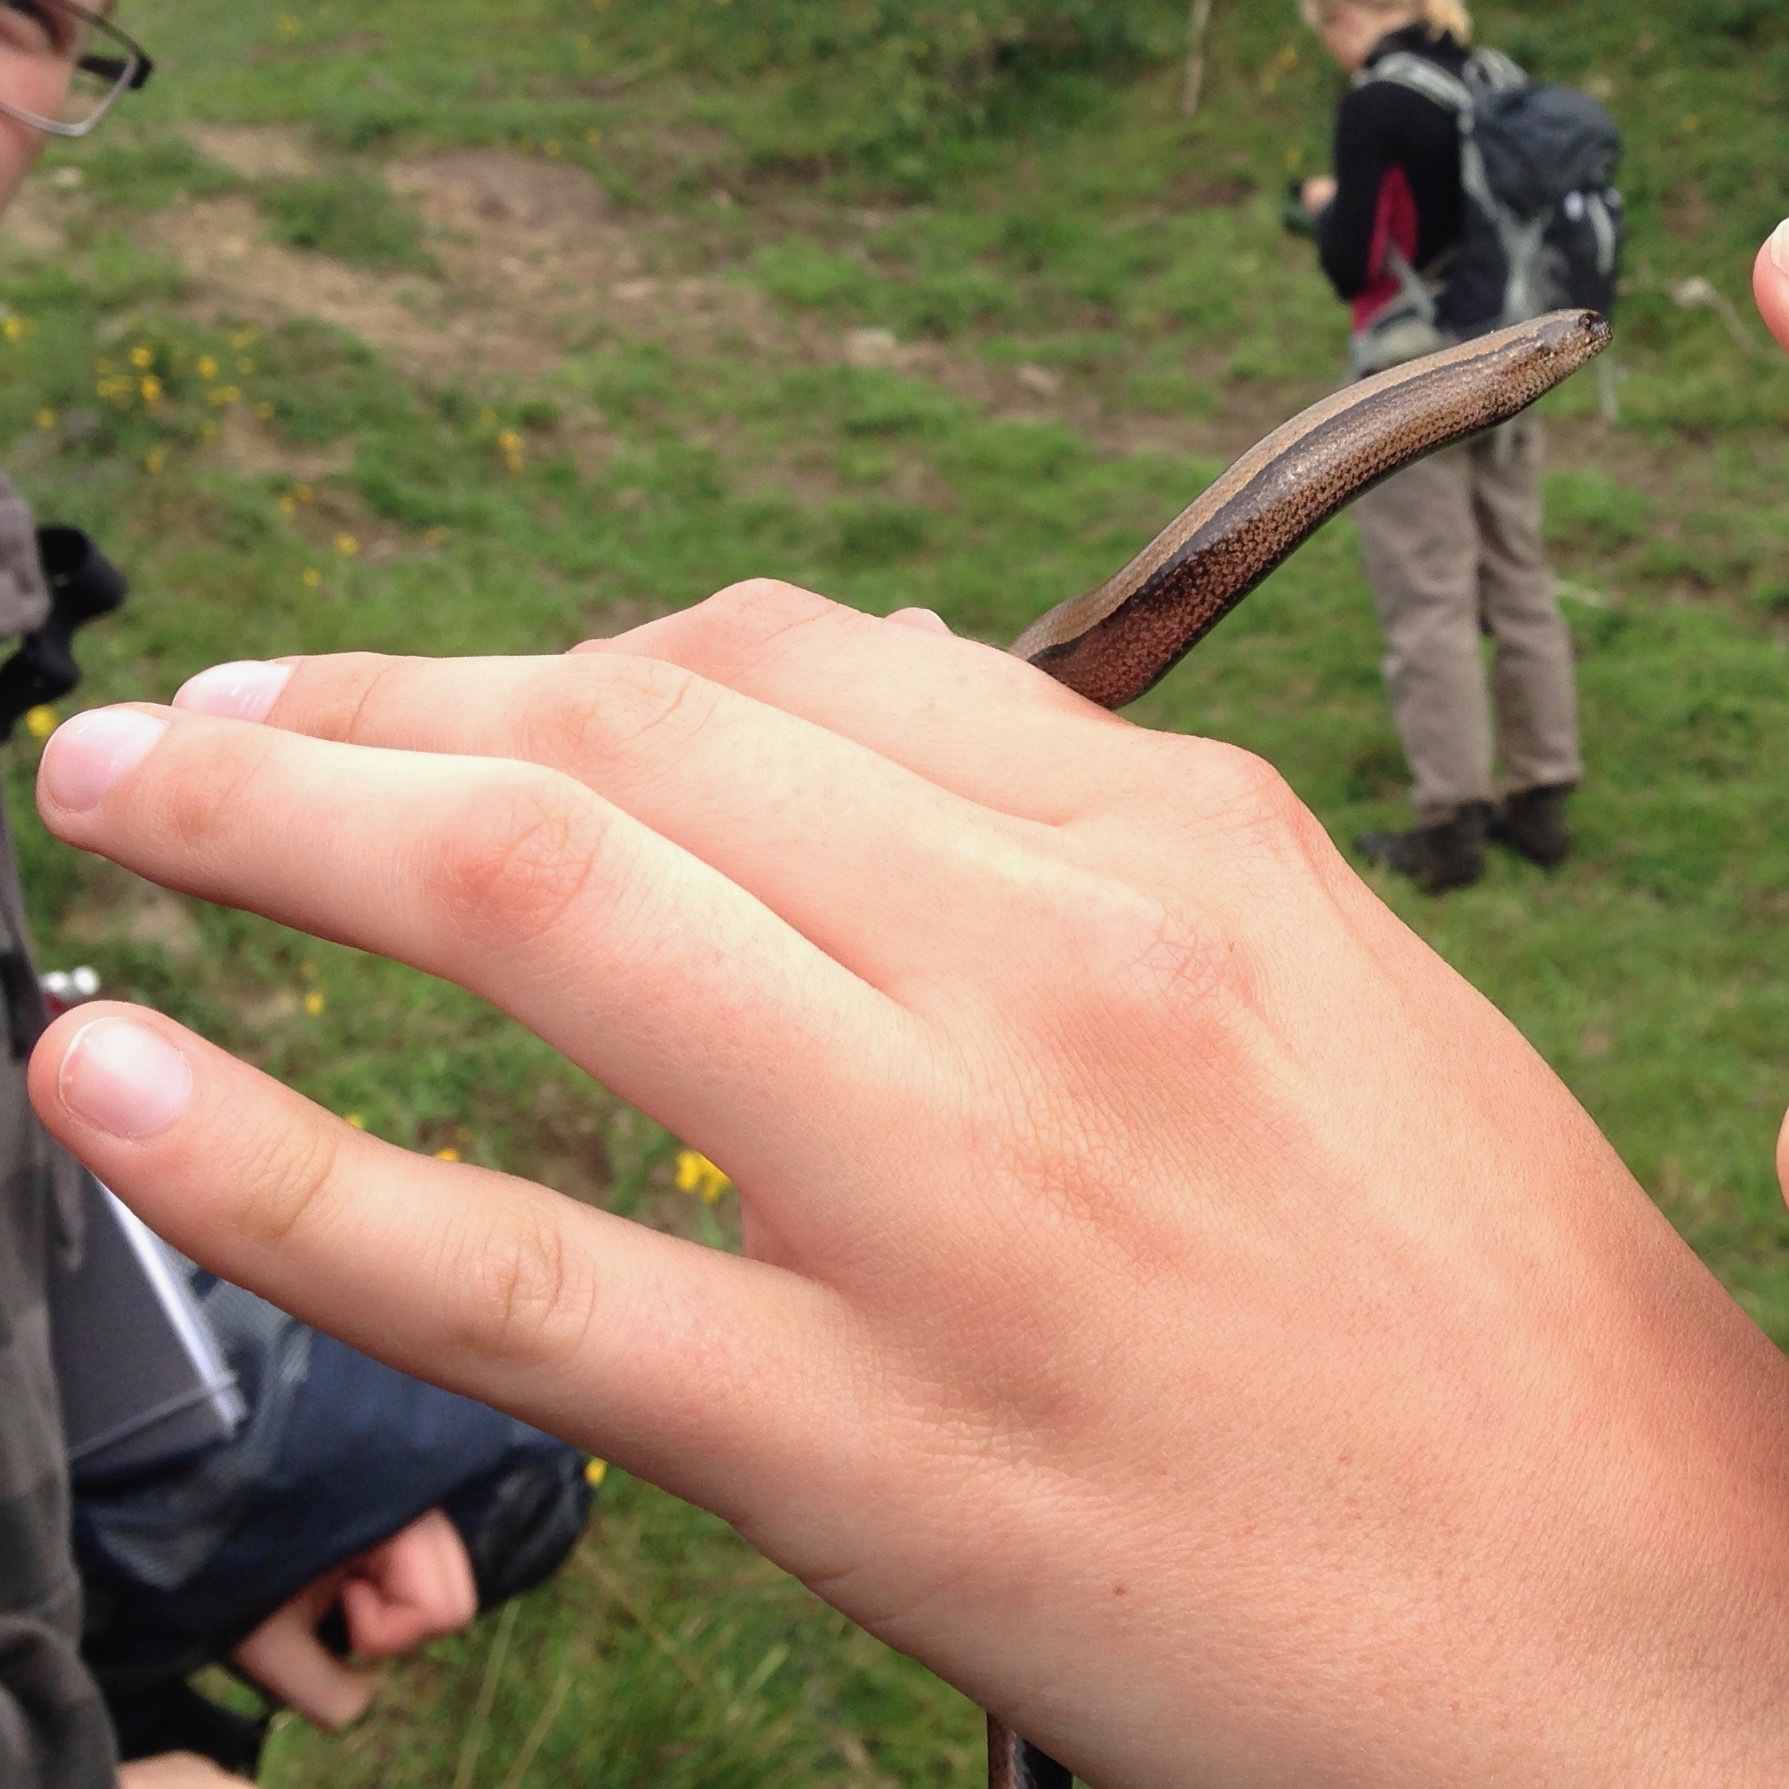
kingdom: Animalia
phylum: Chordata
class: Squamata
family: Anguidae
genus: Anguis
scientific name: Anguis fragilis
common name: Slow worm
